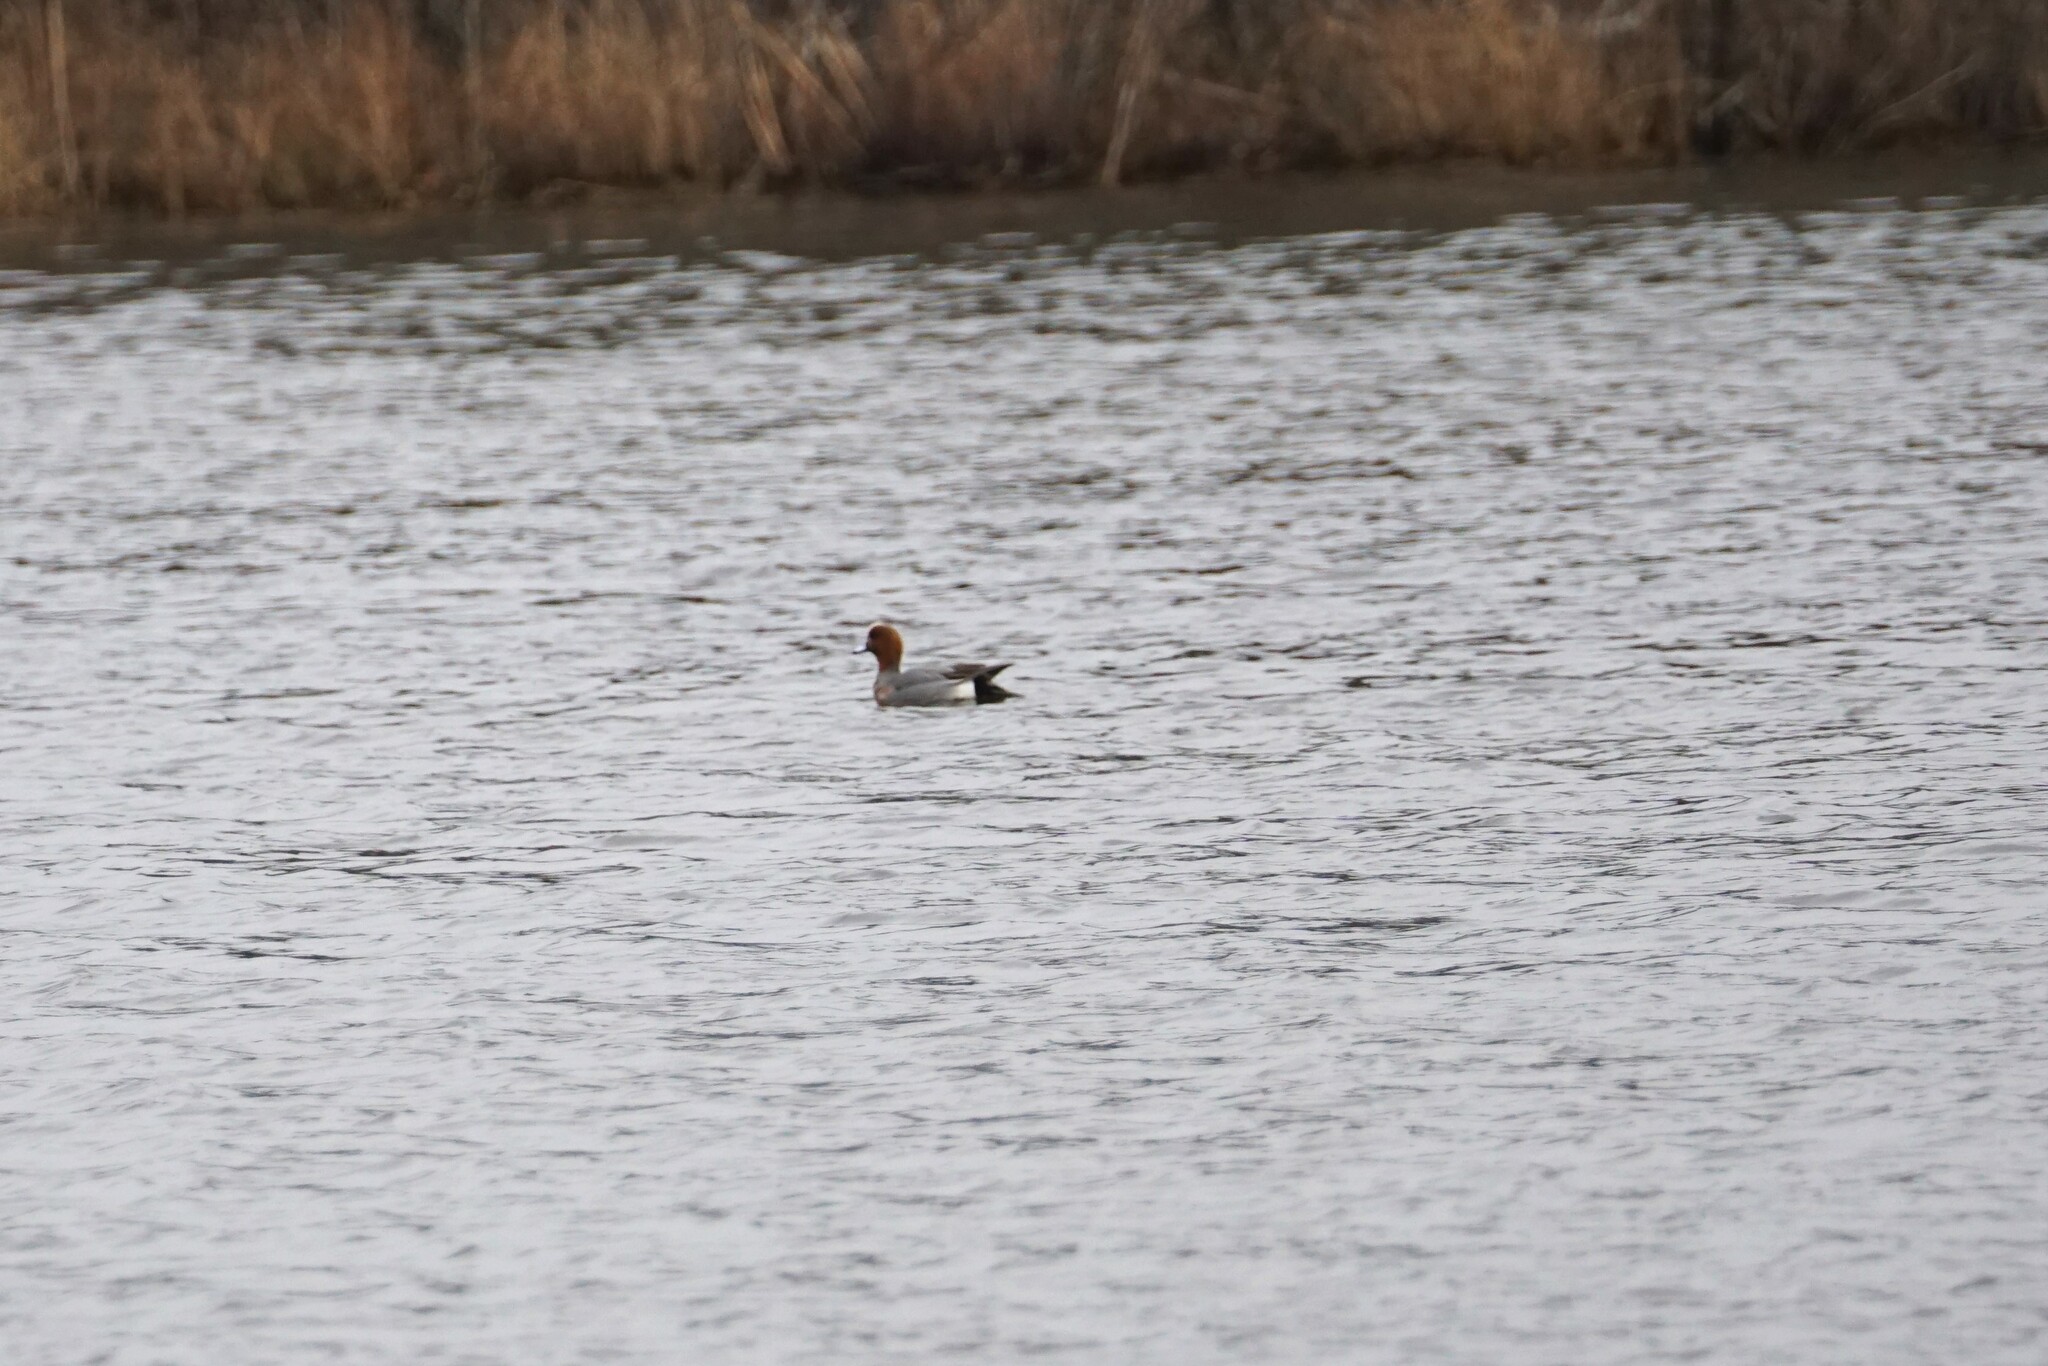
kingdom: Animalia
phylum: Chordata
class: Aves
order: Anseriformes
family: Anatidae
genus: Mareca
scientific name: Mareca penelope
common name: Eurasian wigeon
